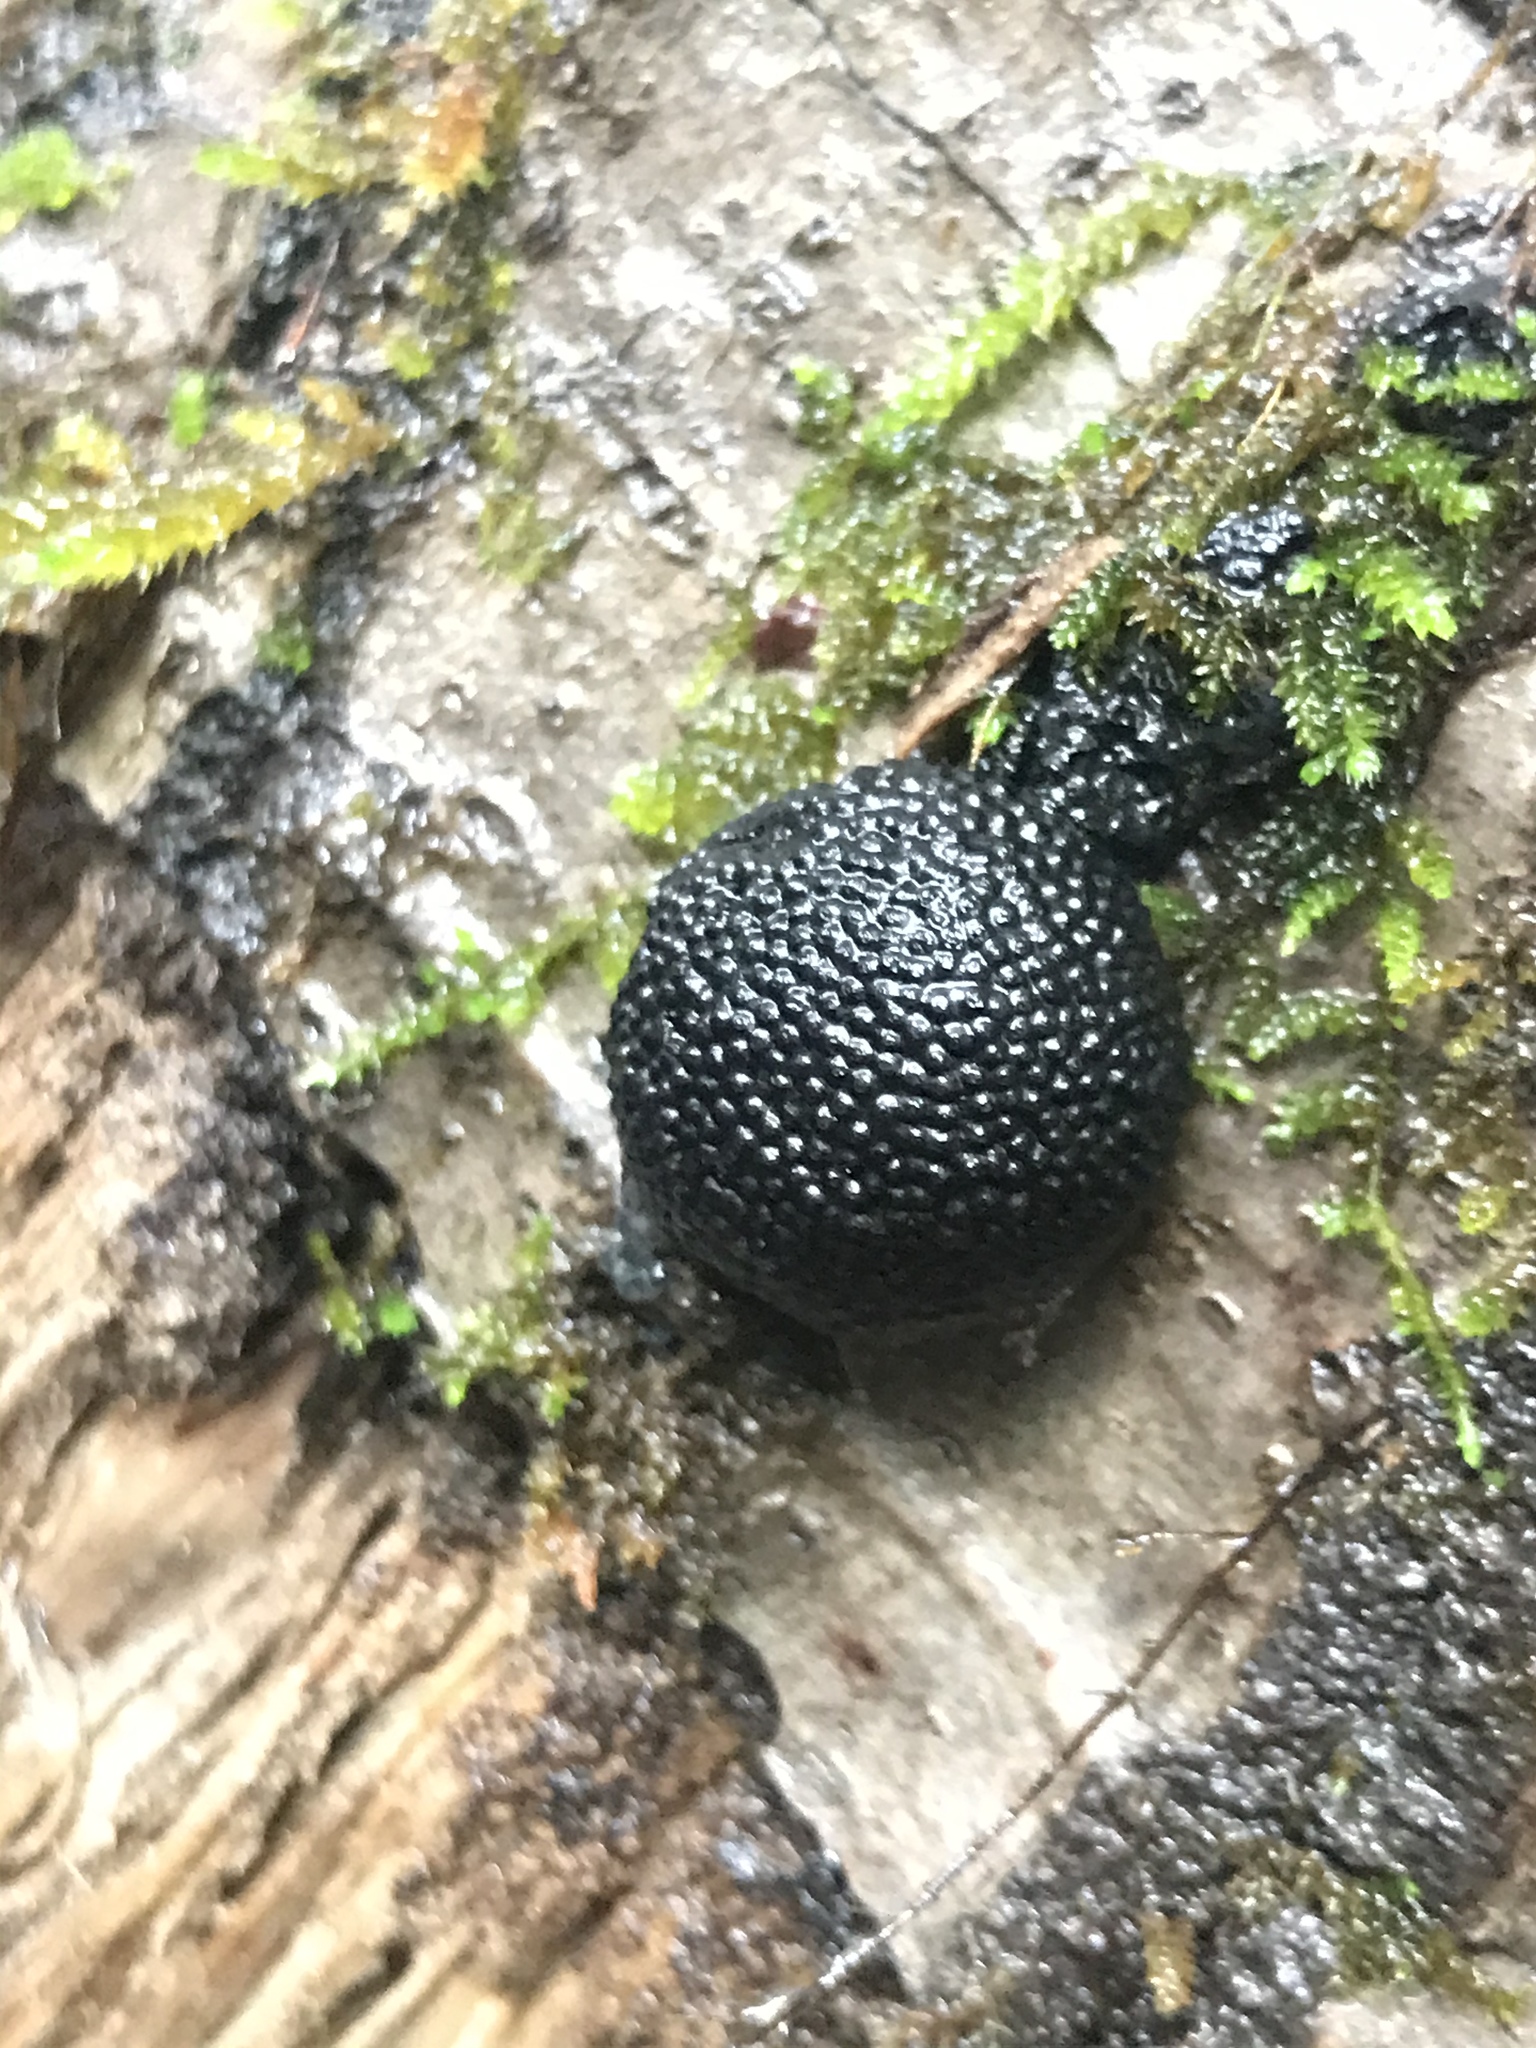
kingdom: Fungi
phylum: Ascomycota
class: Sordariomycetes
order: Xylariales
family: Hypoxylaceae
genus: Annulohypoxylon
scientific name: Annulohypoxylon thouarsianum
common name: Cramp balls
